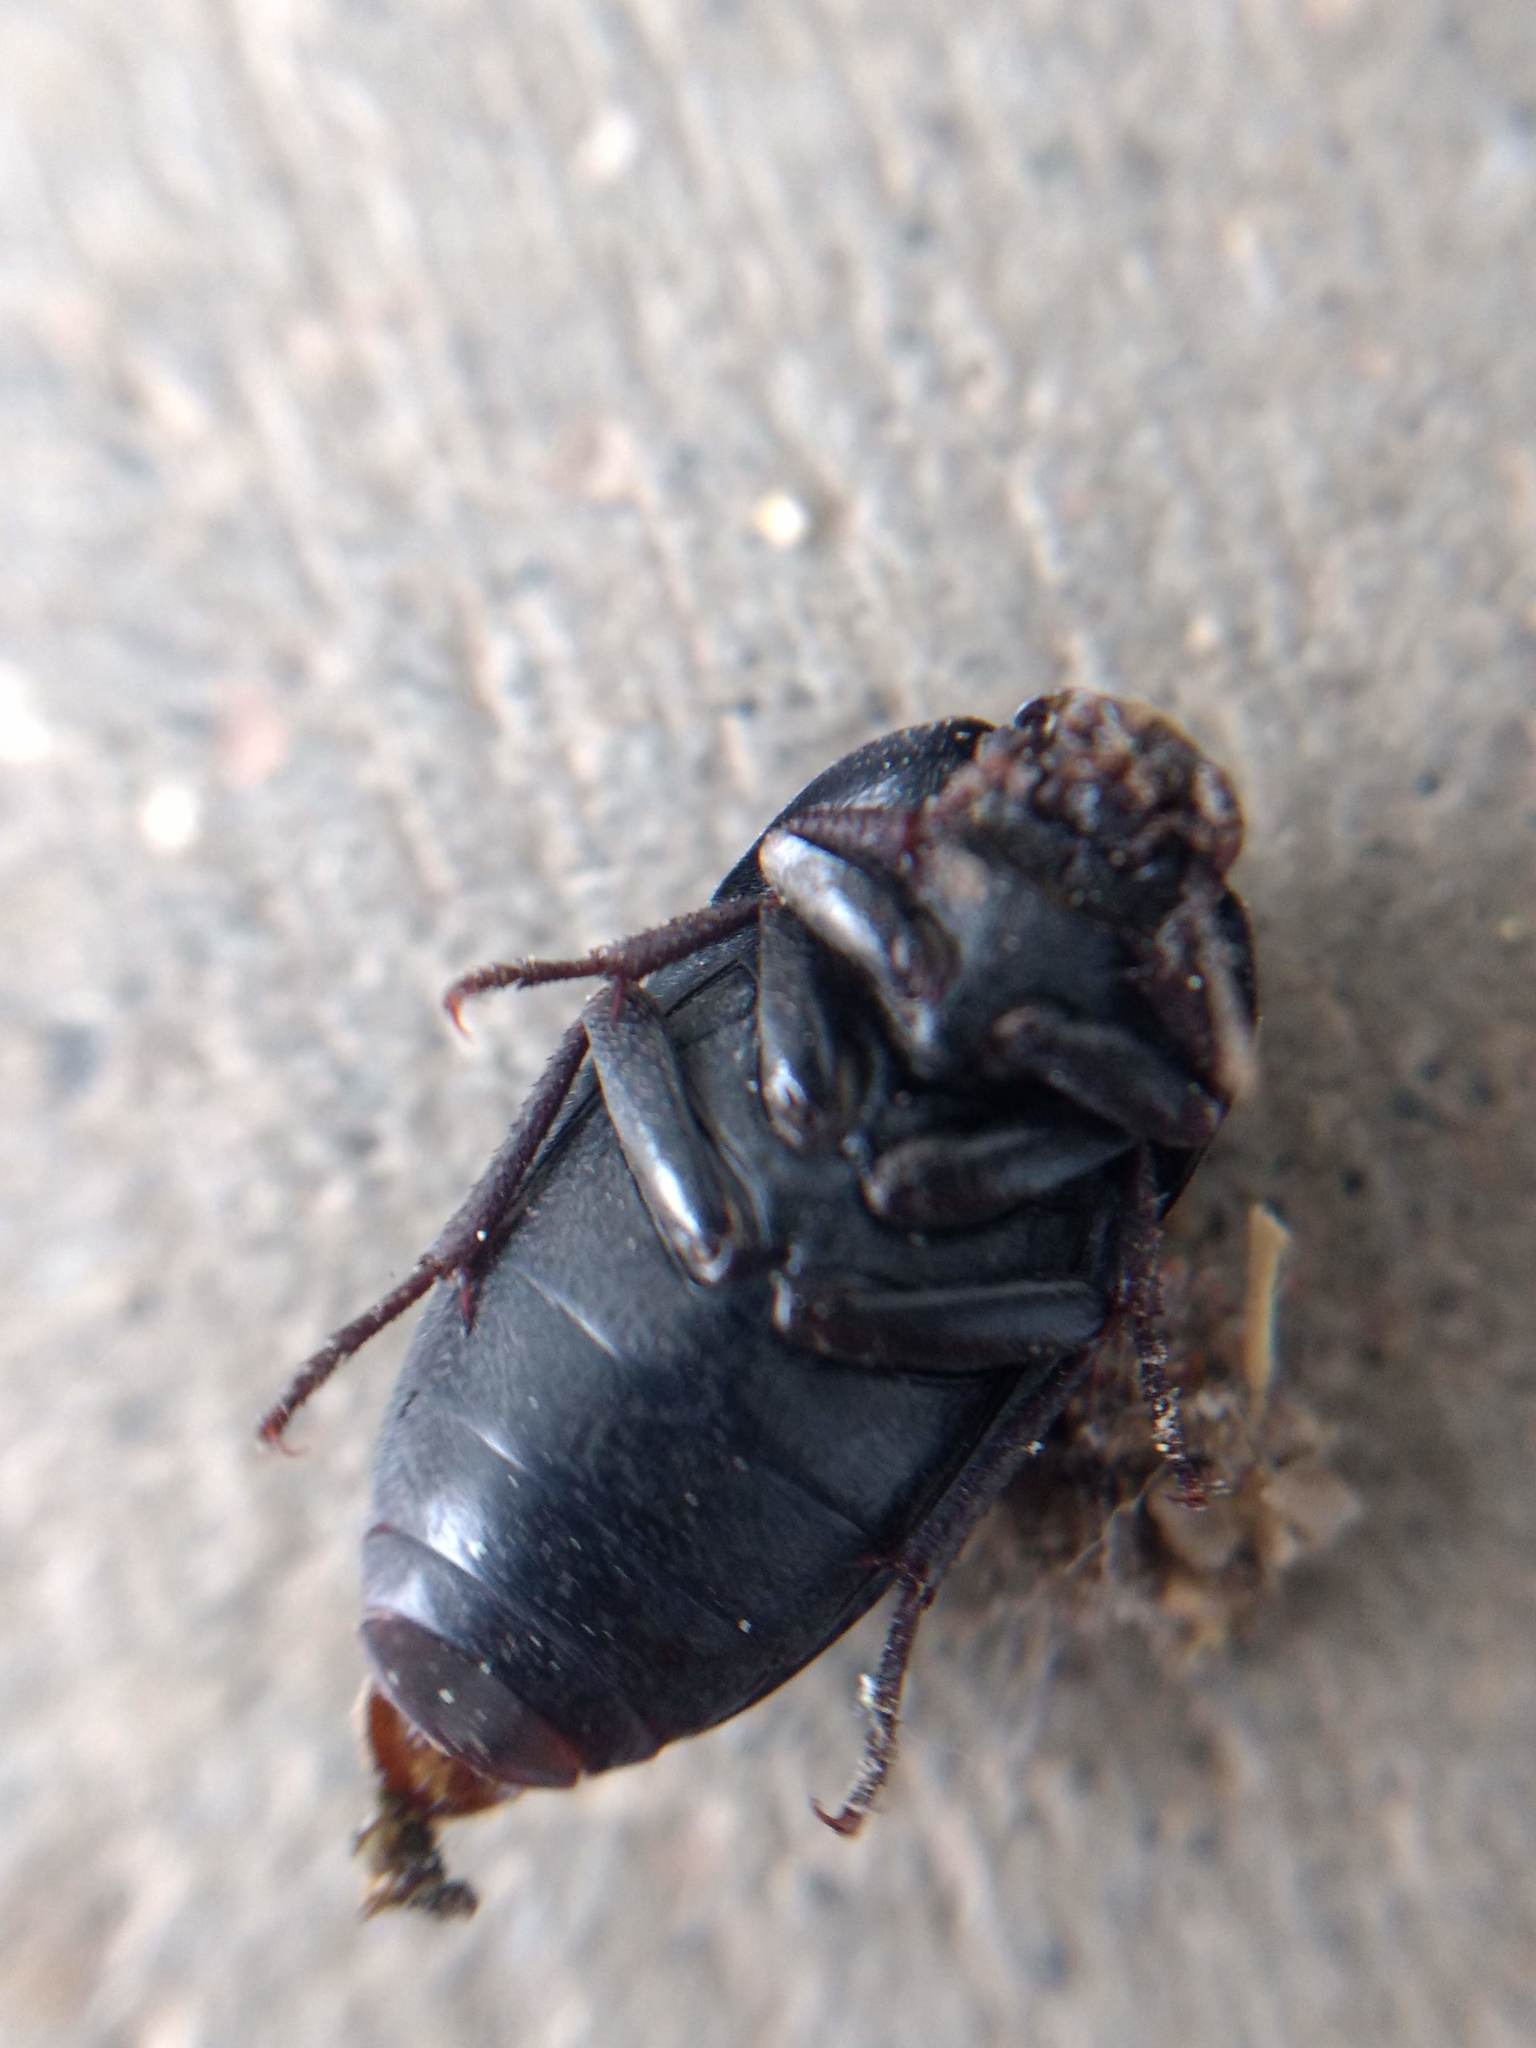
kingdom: Animalia
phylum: Arthropoda
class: Insecta
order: Coleoptera
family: Tenebrionidae
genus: Coniontis
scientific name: Coniontis
